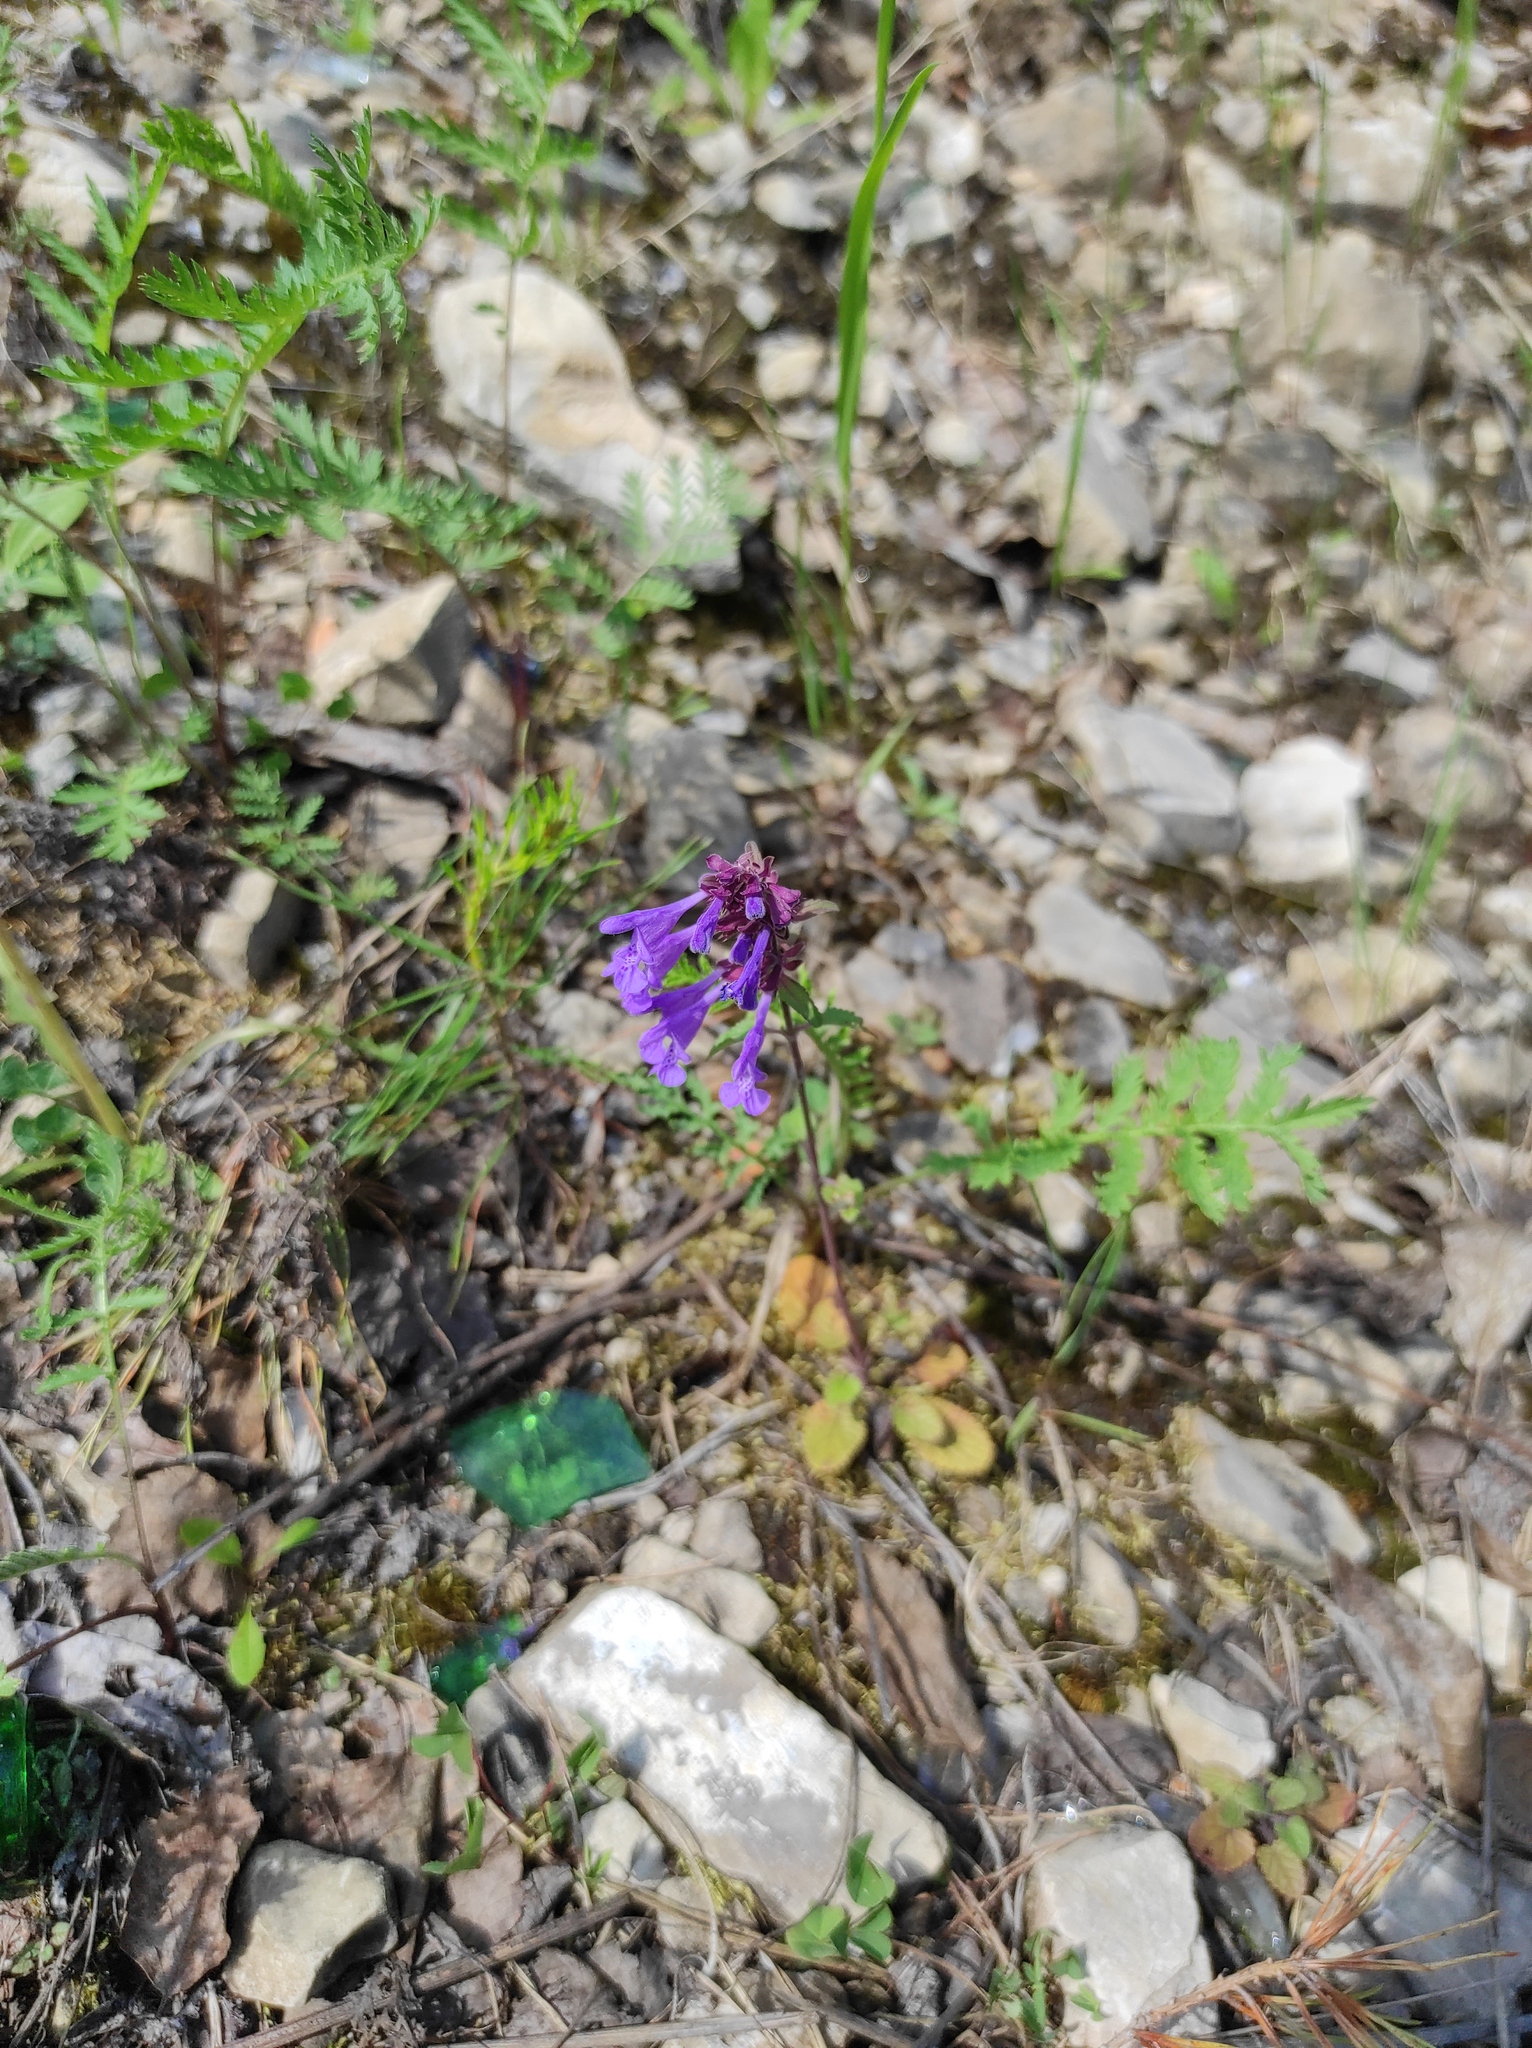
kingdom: Plantae
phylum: Tracheophyta
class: Magnoliopsida
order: Lamiales
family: Lamiaceae
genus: Dracocephalum
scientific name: Dracocephalum nutans
